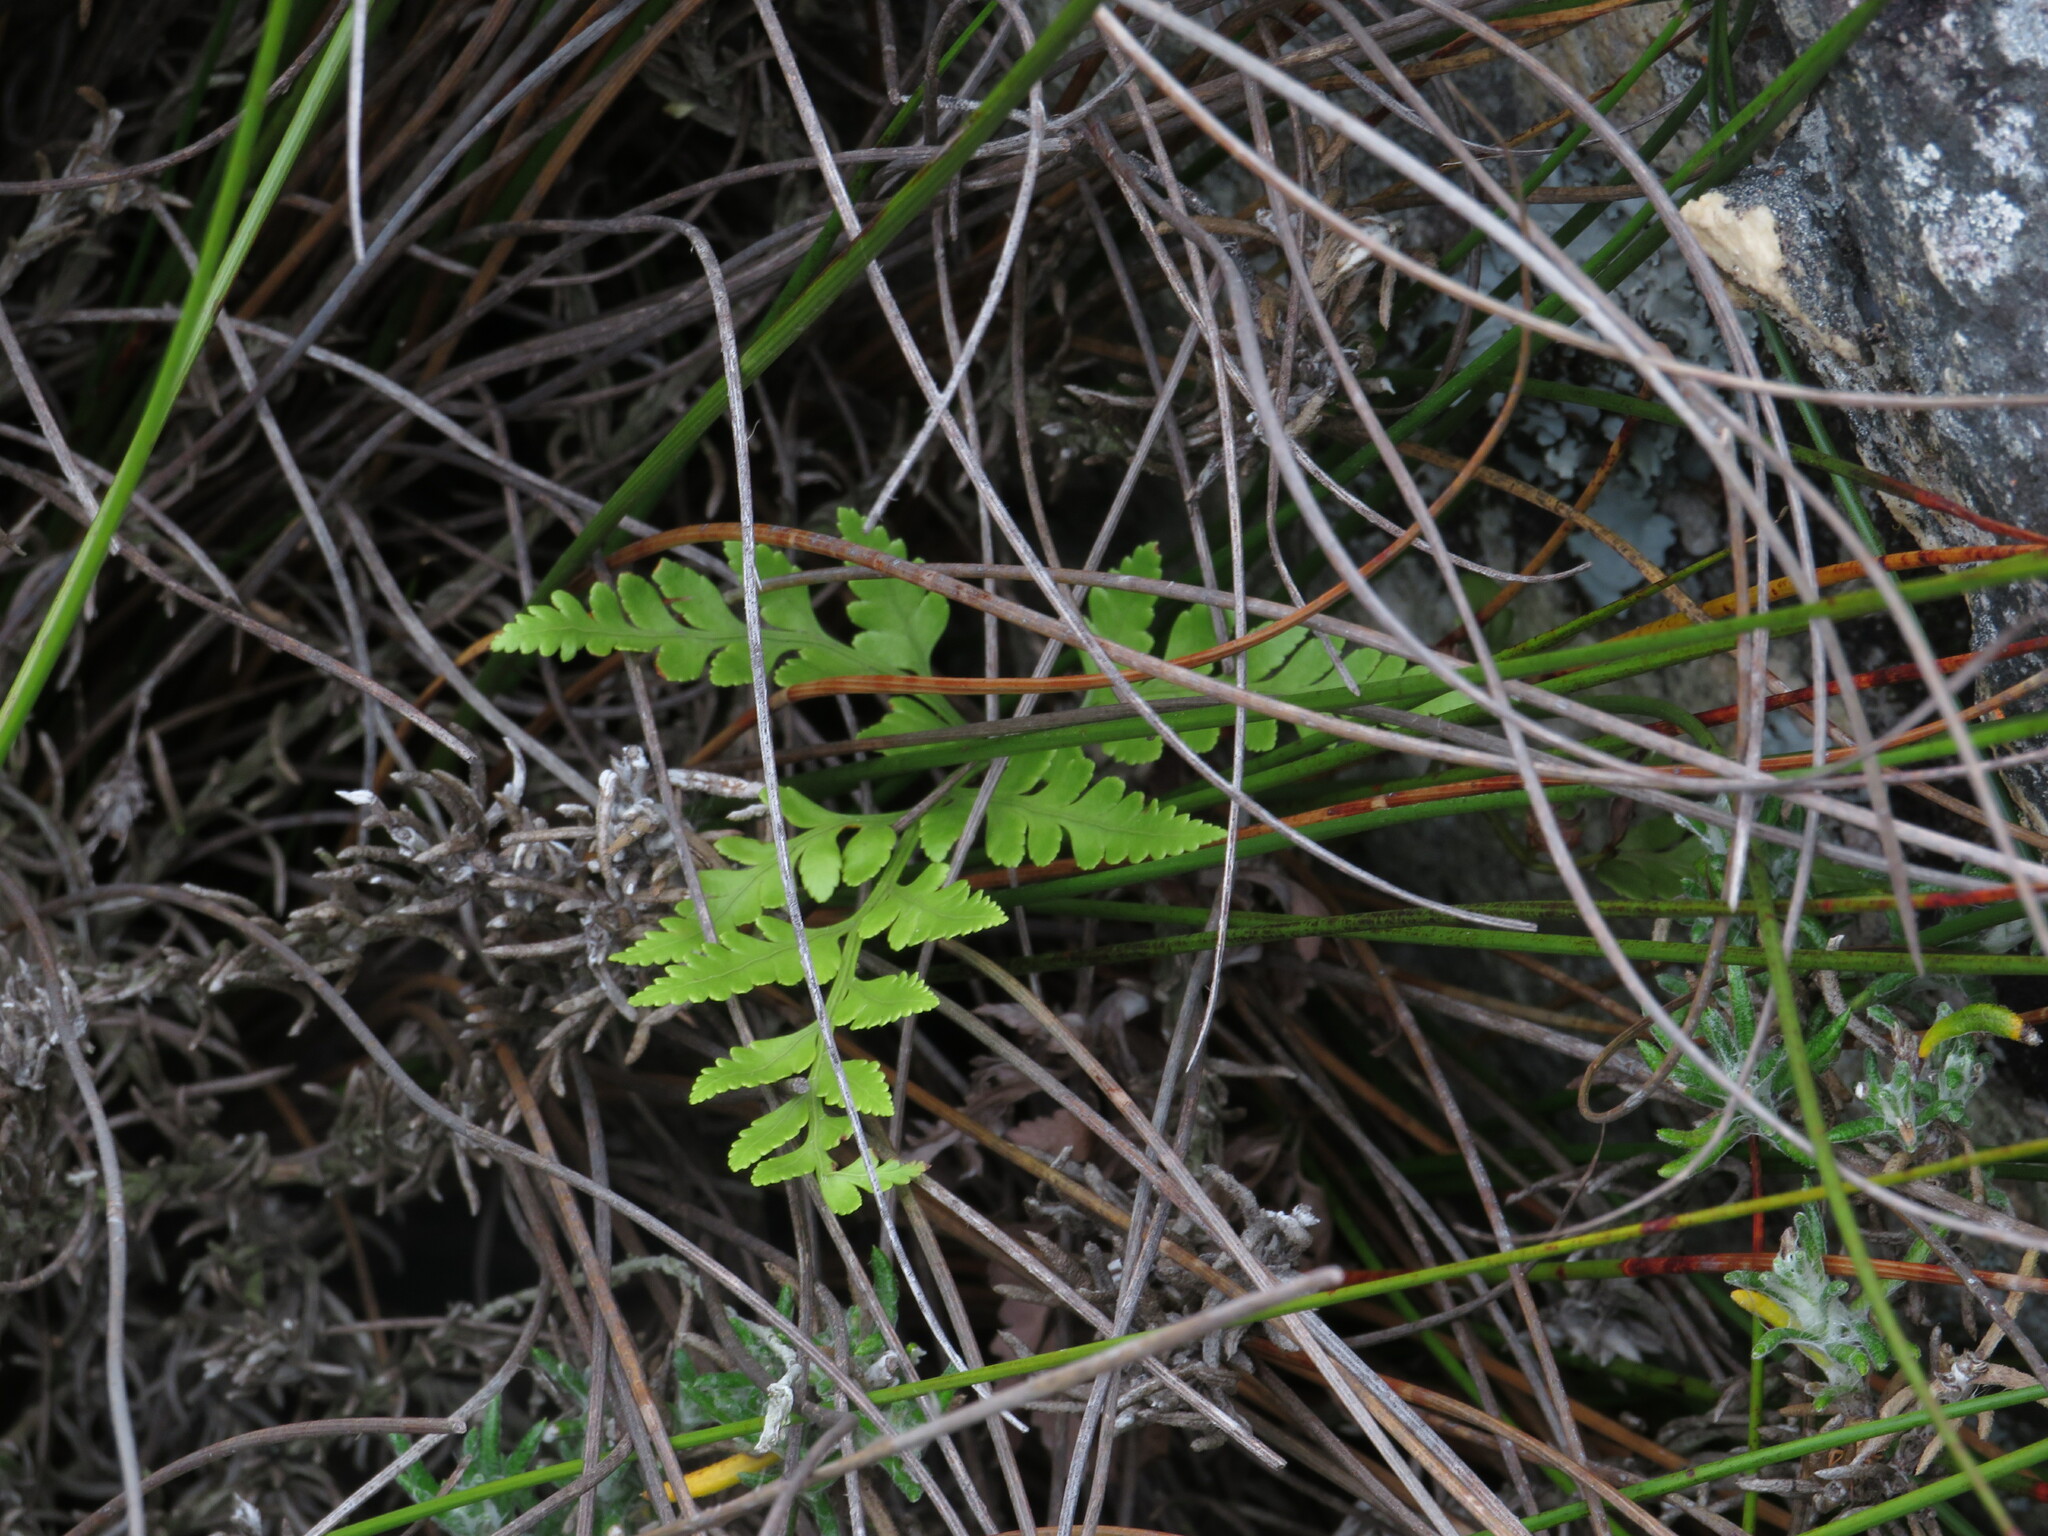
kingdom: Plantae
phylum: Tracheophyta
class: Polypodiopsida
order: Polypodiales
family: Dryopteridaceae
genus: Rumohra
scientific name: Rumohra adiantiformis
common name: Leather fern
